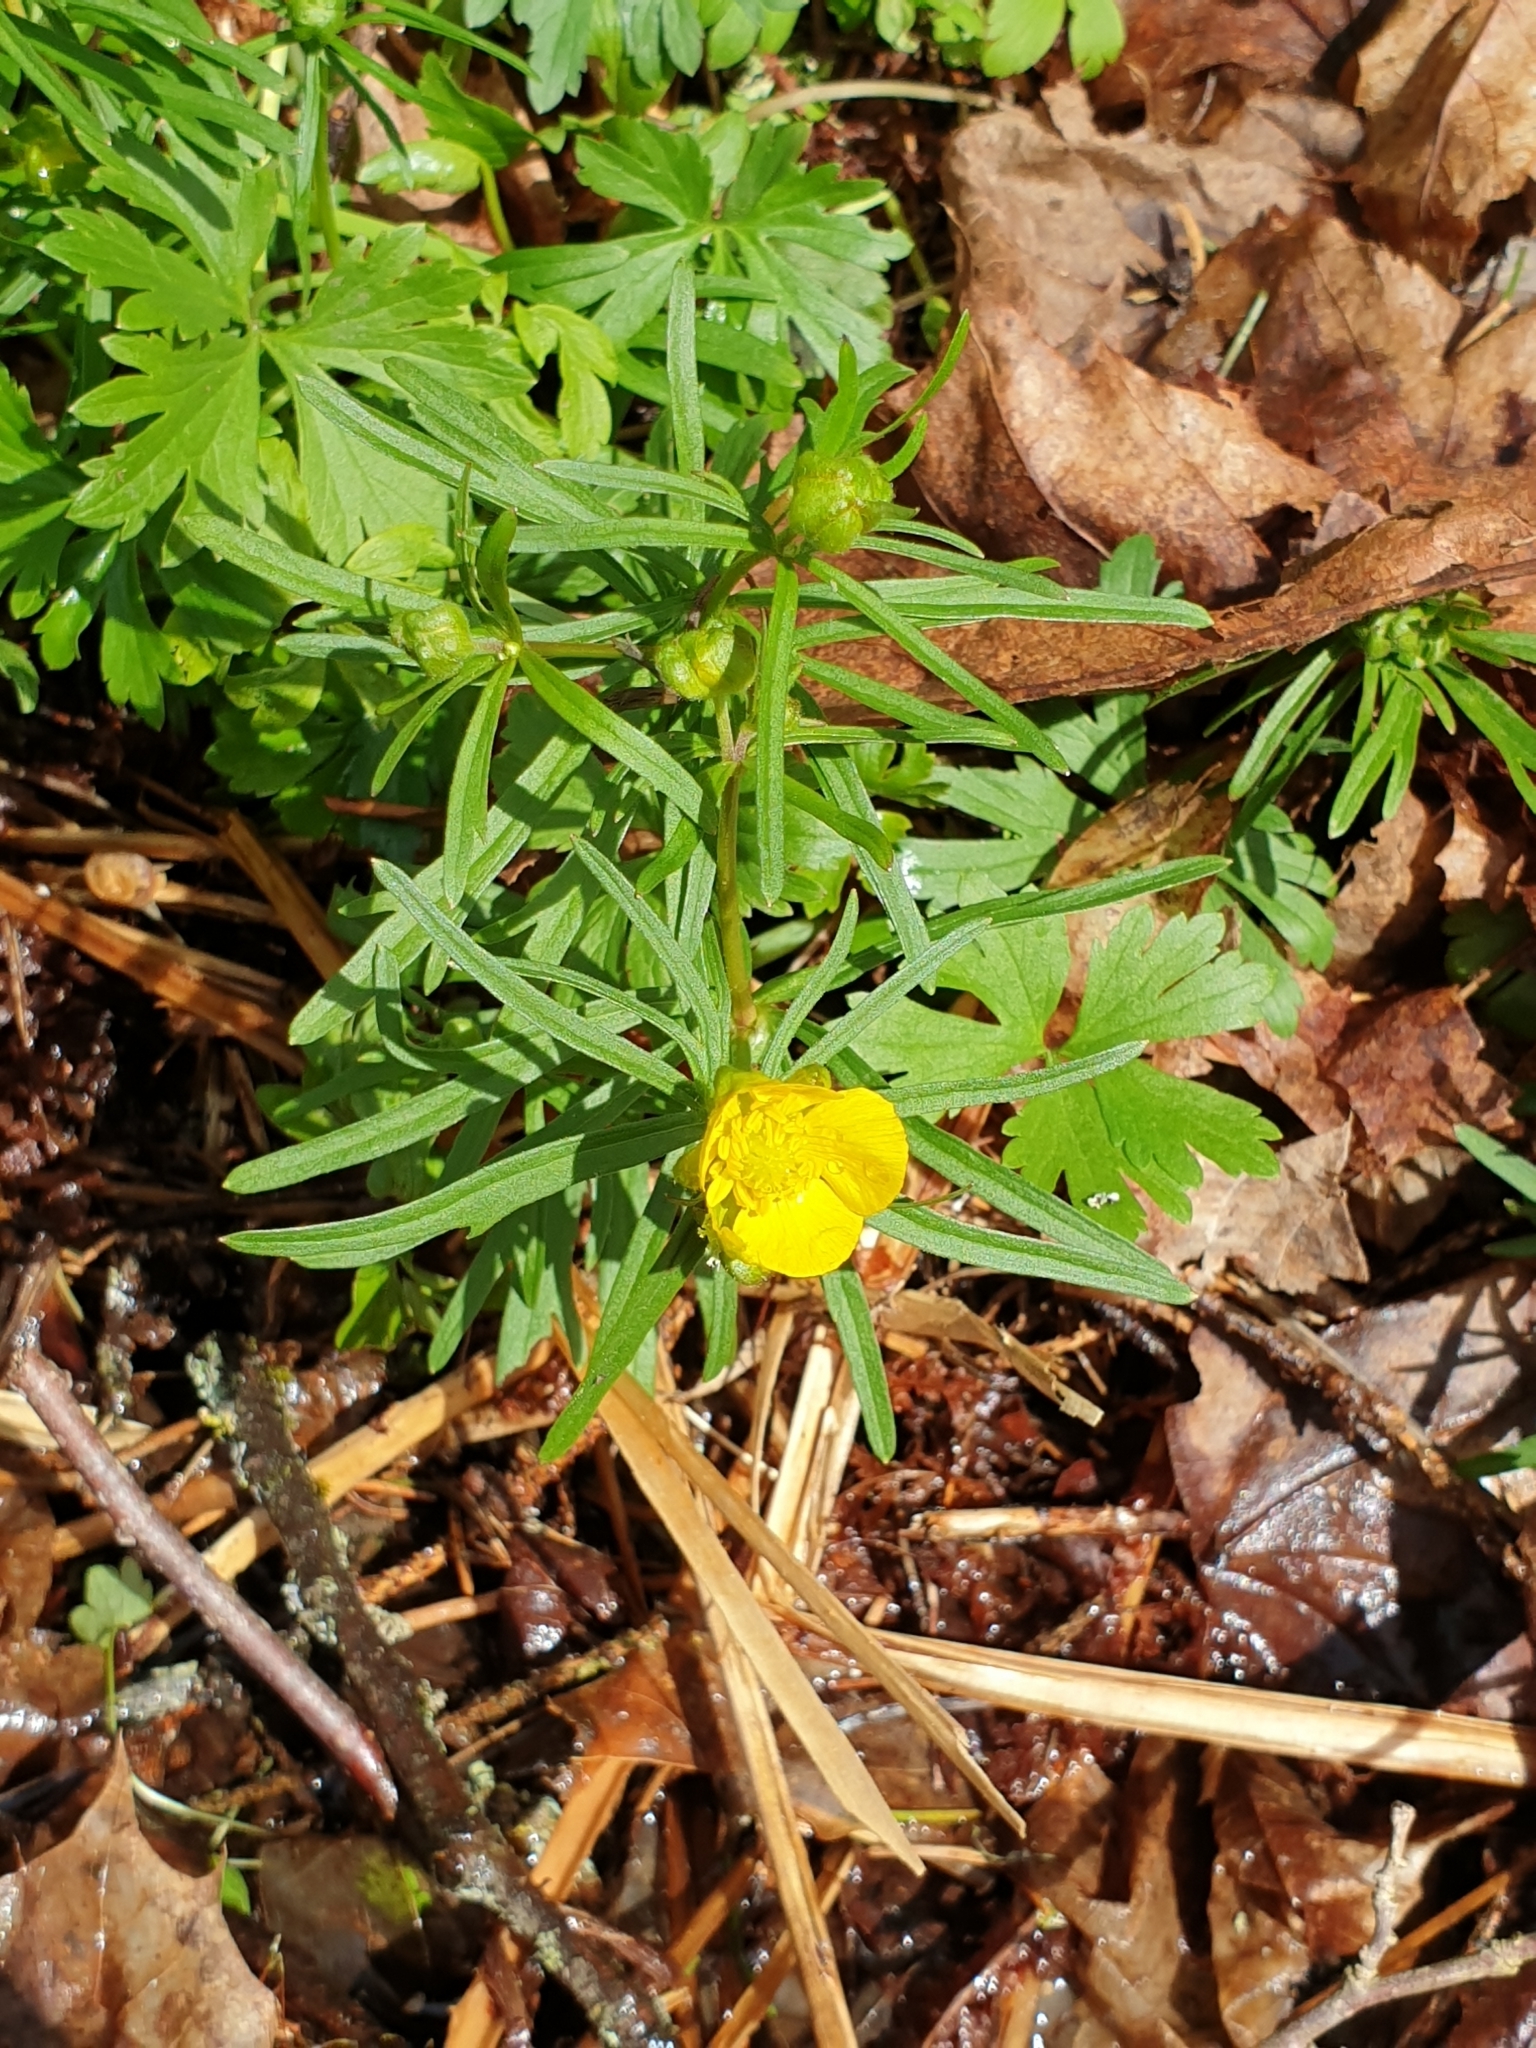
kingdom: Plantae
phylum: Tracheophyta
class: Magnoliopsida
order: Ranunculales
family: Ranunculaceae
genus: Ranunculus
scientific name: Ranunculus auricomus
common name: Goldilocks buttercup
